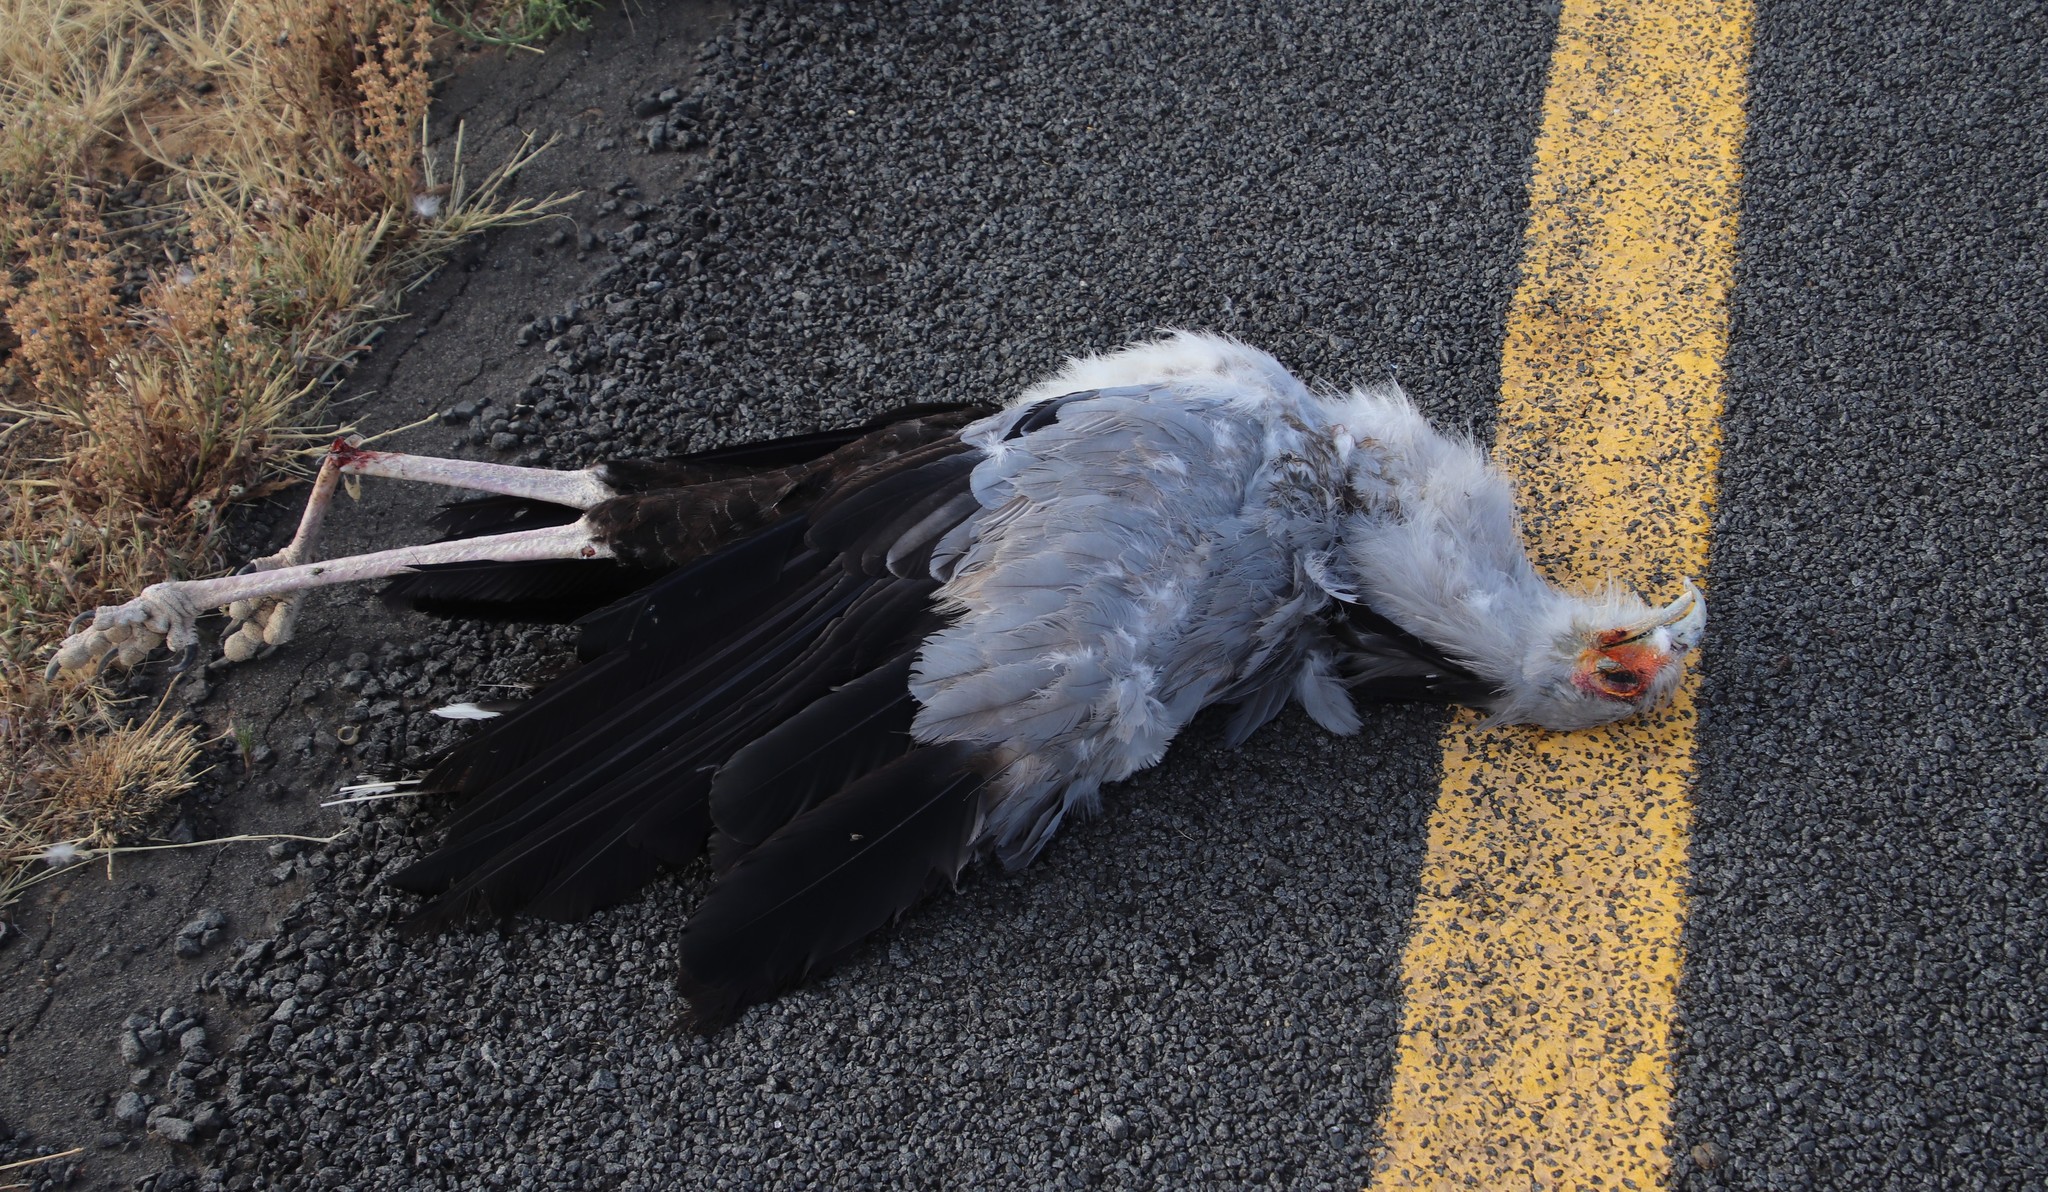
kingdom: Animalia
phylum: Chordata
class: Aves
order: Accipitriformes
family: Sagittariidae
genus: Sagittarius
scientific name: Sagittarius serpentarius
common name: Secretarybird
